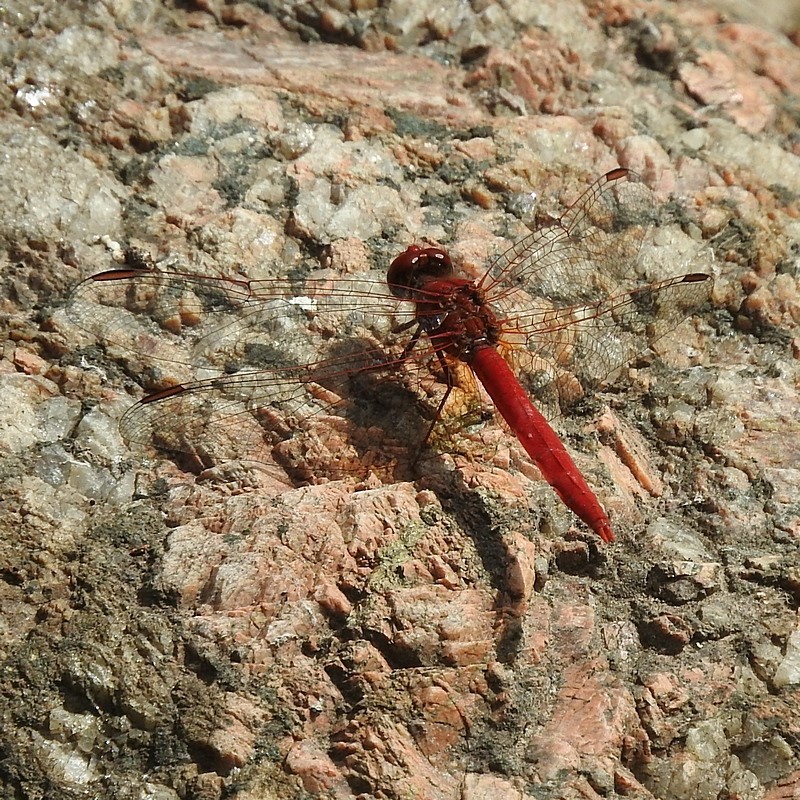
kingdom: Animalia
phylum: Arthropoda
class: Insecta
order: Odonata
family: Libellulidae
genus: Diplacodes
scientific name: Diplacodes haematodes
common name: Scarlet percher
